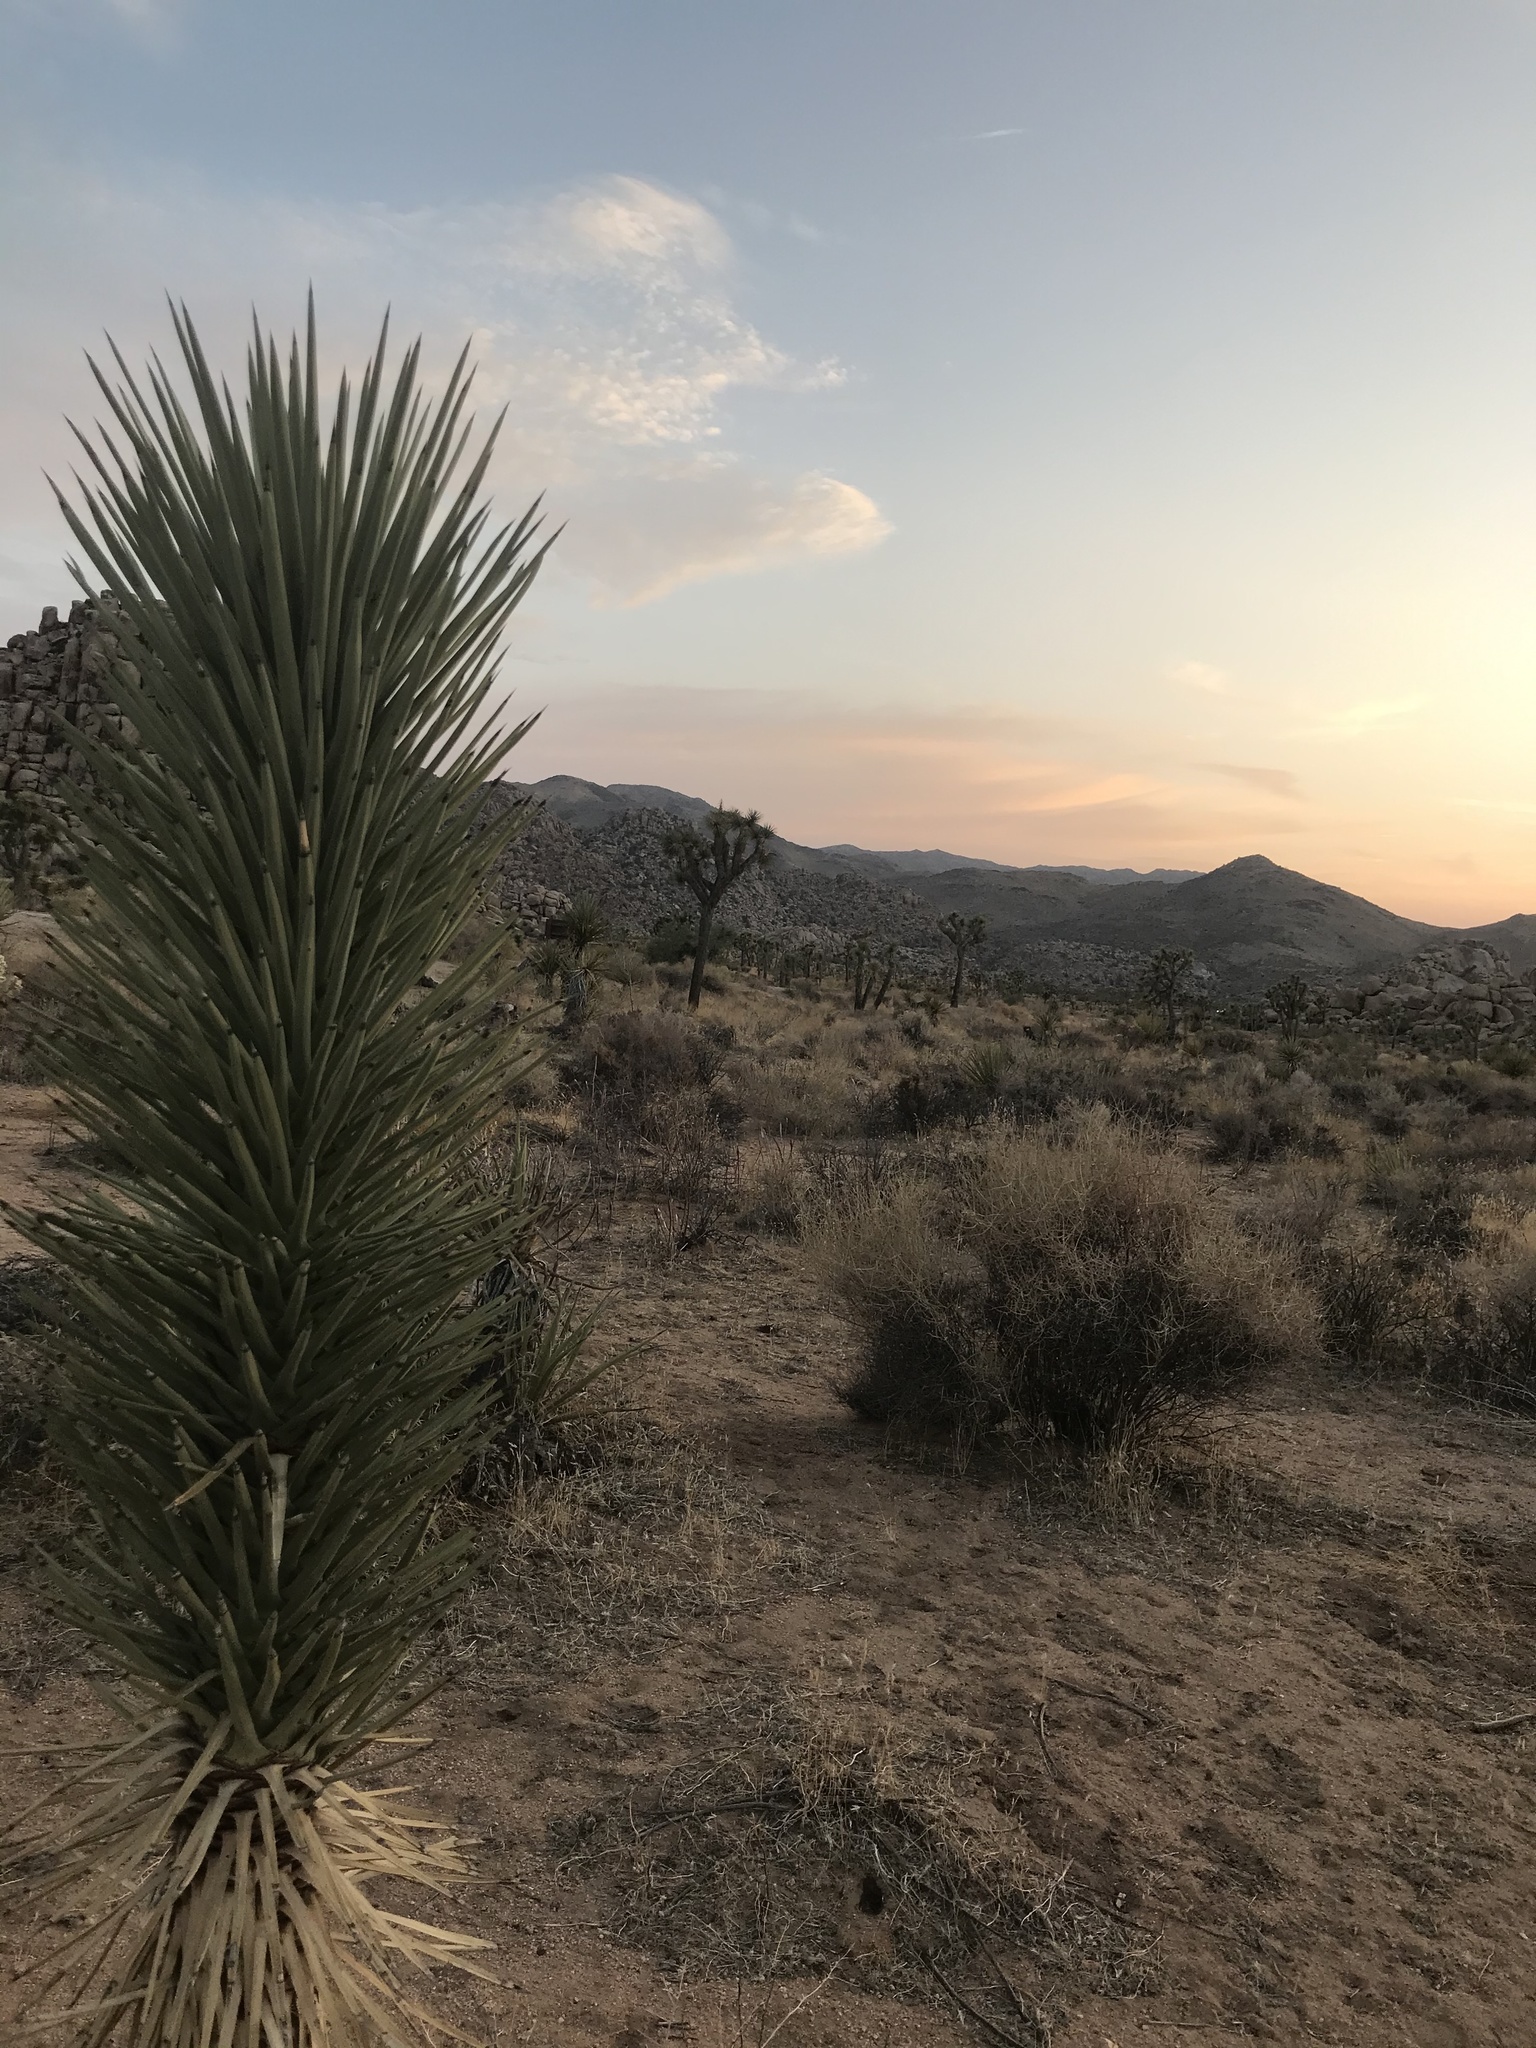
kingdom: Plantae
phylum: Tracheophyta
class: Liliopsida
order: Asparagales
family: Asparagaceae
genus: Yucca
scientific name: Yucca brevifolia
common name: Joshua tree
